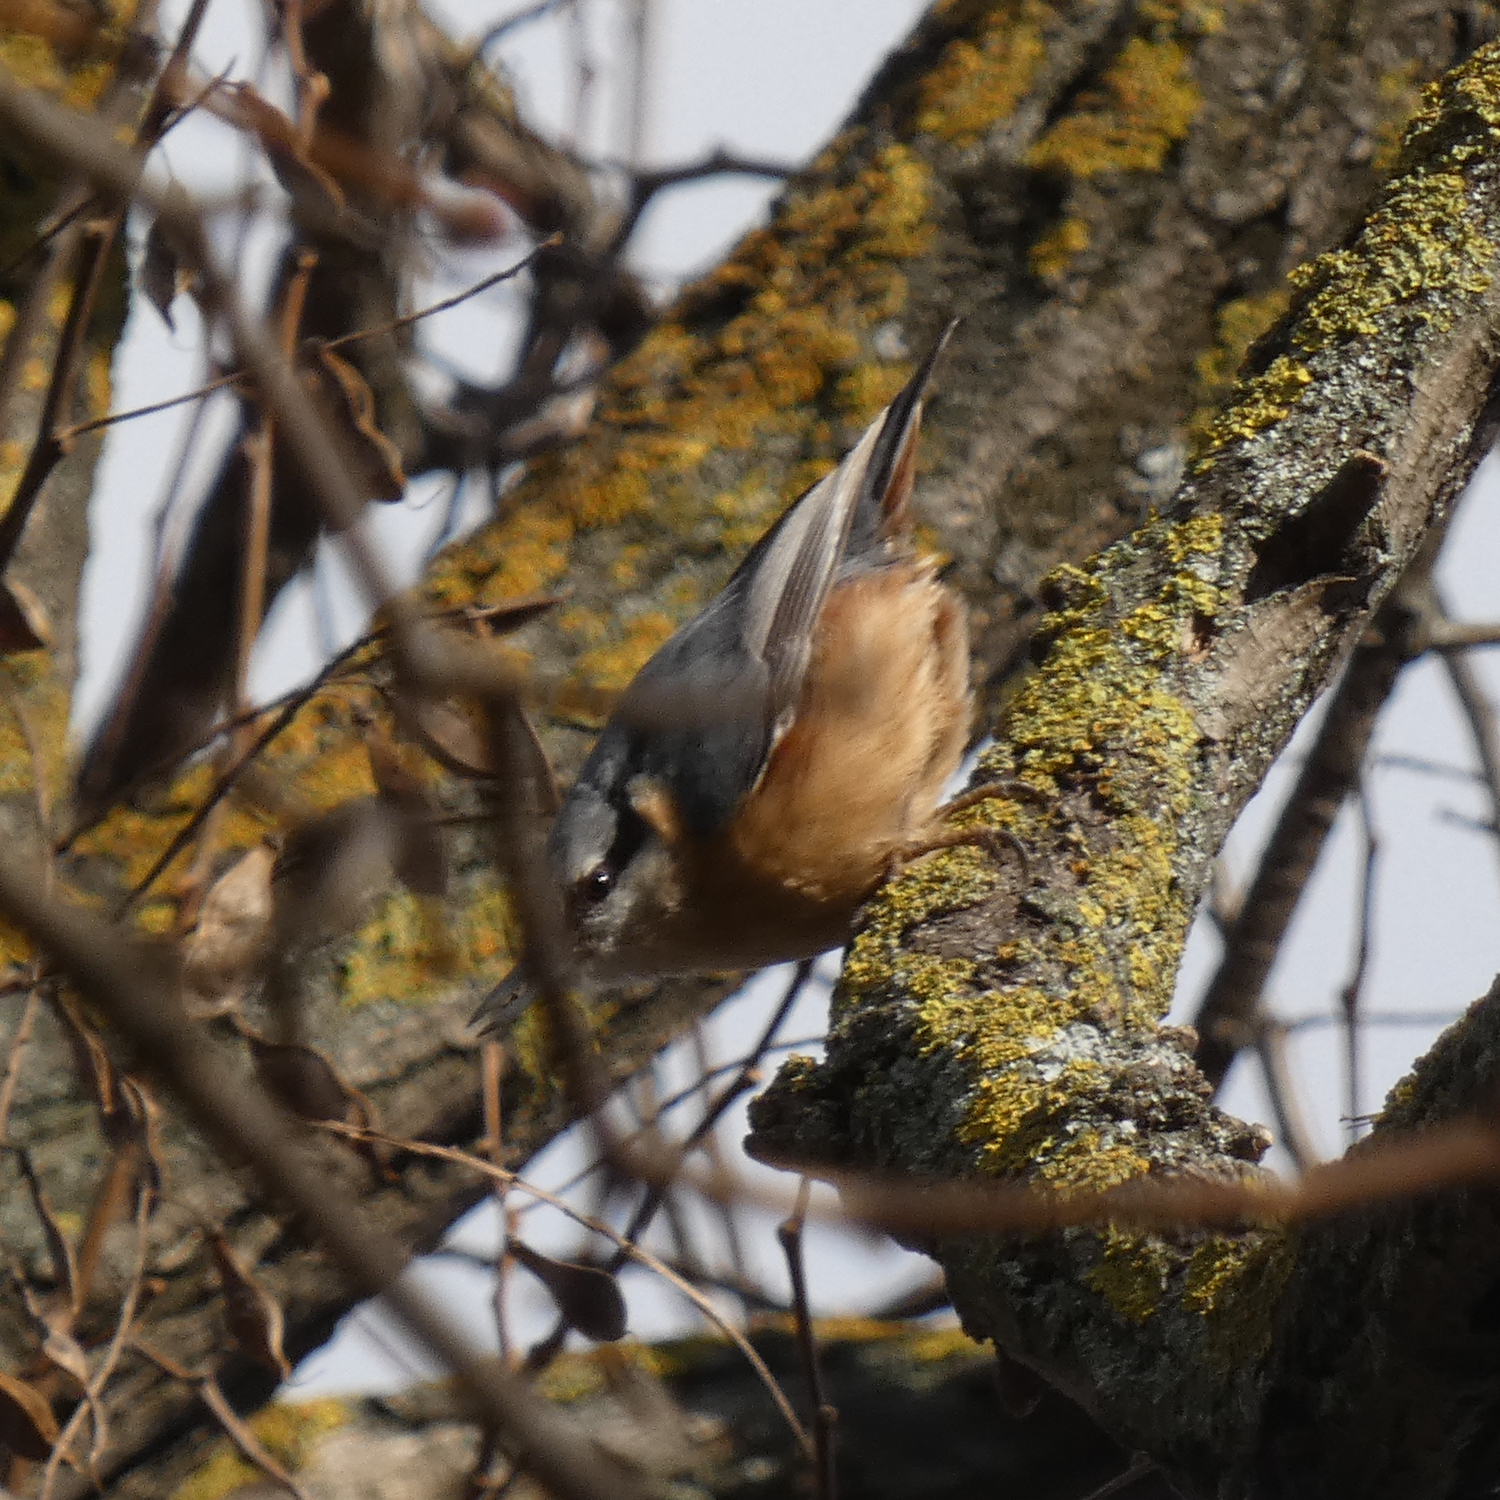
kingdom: Animalia
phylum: Chordata
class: Aves
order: Passeriformes
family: Sittidae
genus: Sitta
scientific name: Sitta europaea
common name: Eurasian nuthatch
